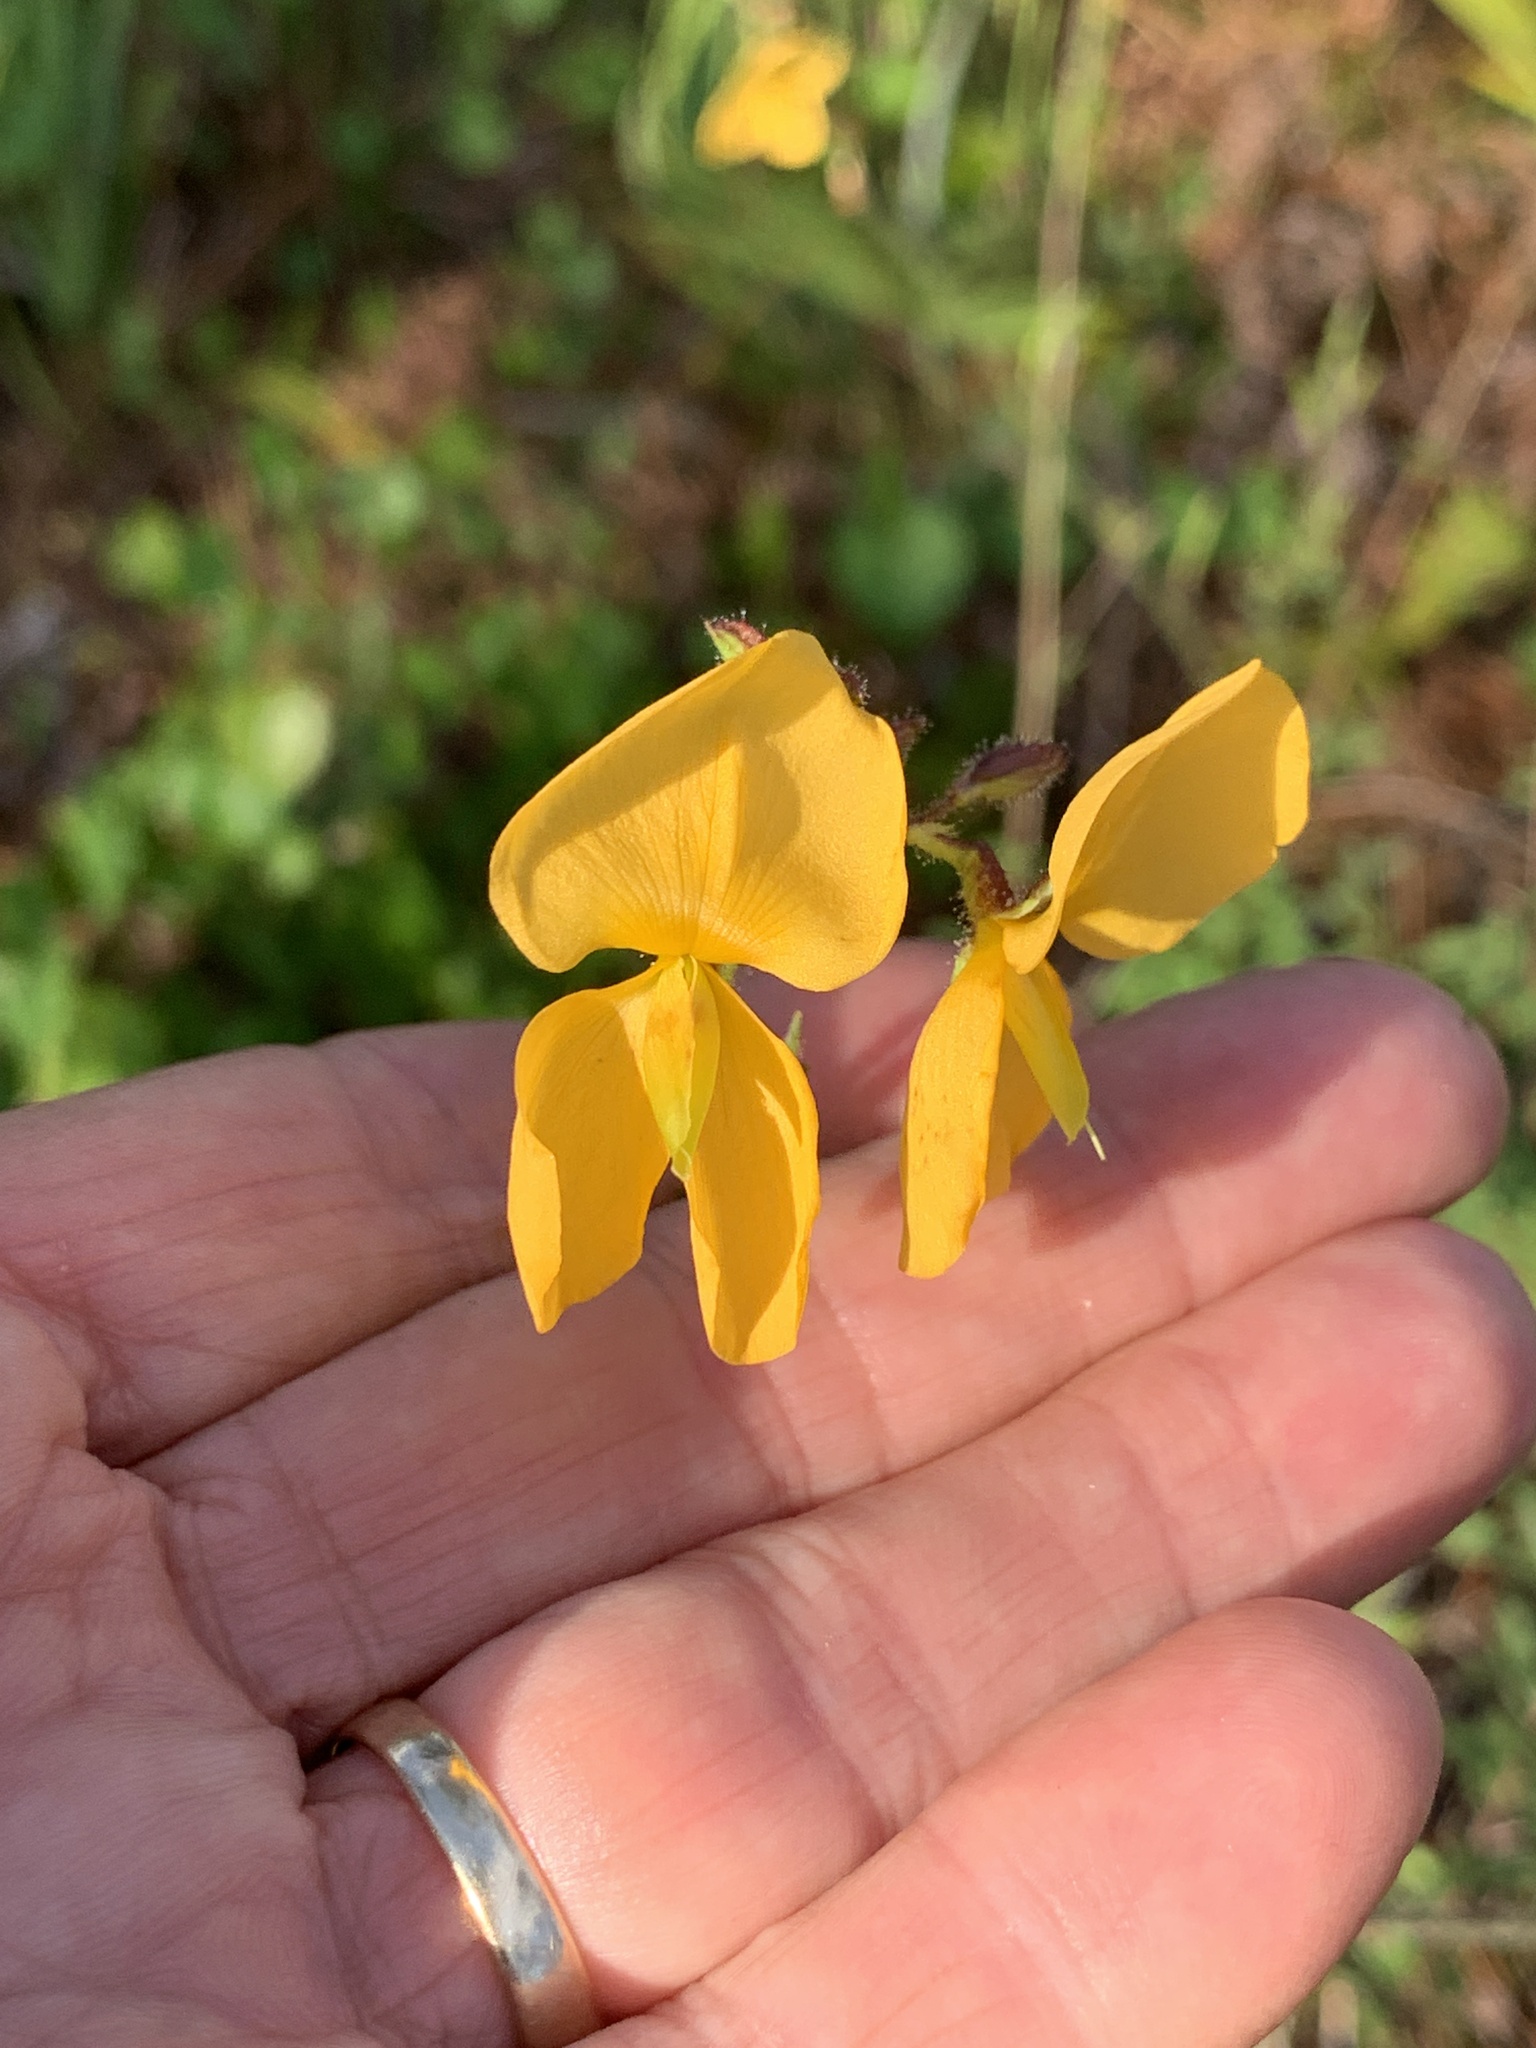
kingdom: Plantae
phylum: Tracheophyta
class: Magnoliopsida
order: Fabales
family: Fabaceae
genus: Chapmannia
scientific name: Chapmannia floridana
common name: Alicia
